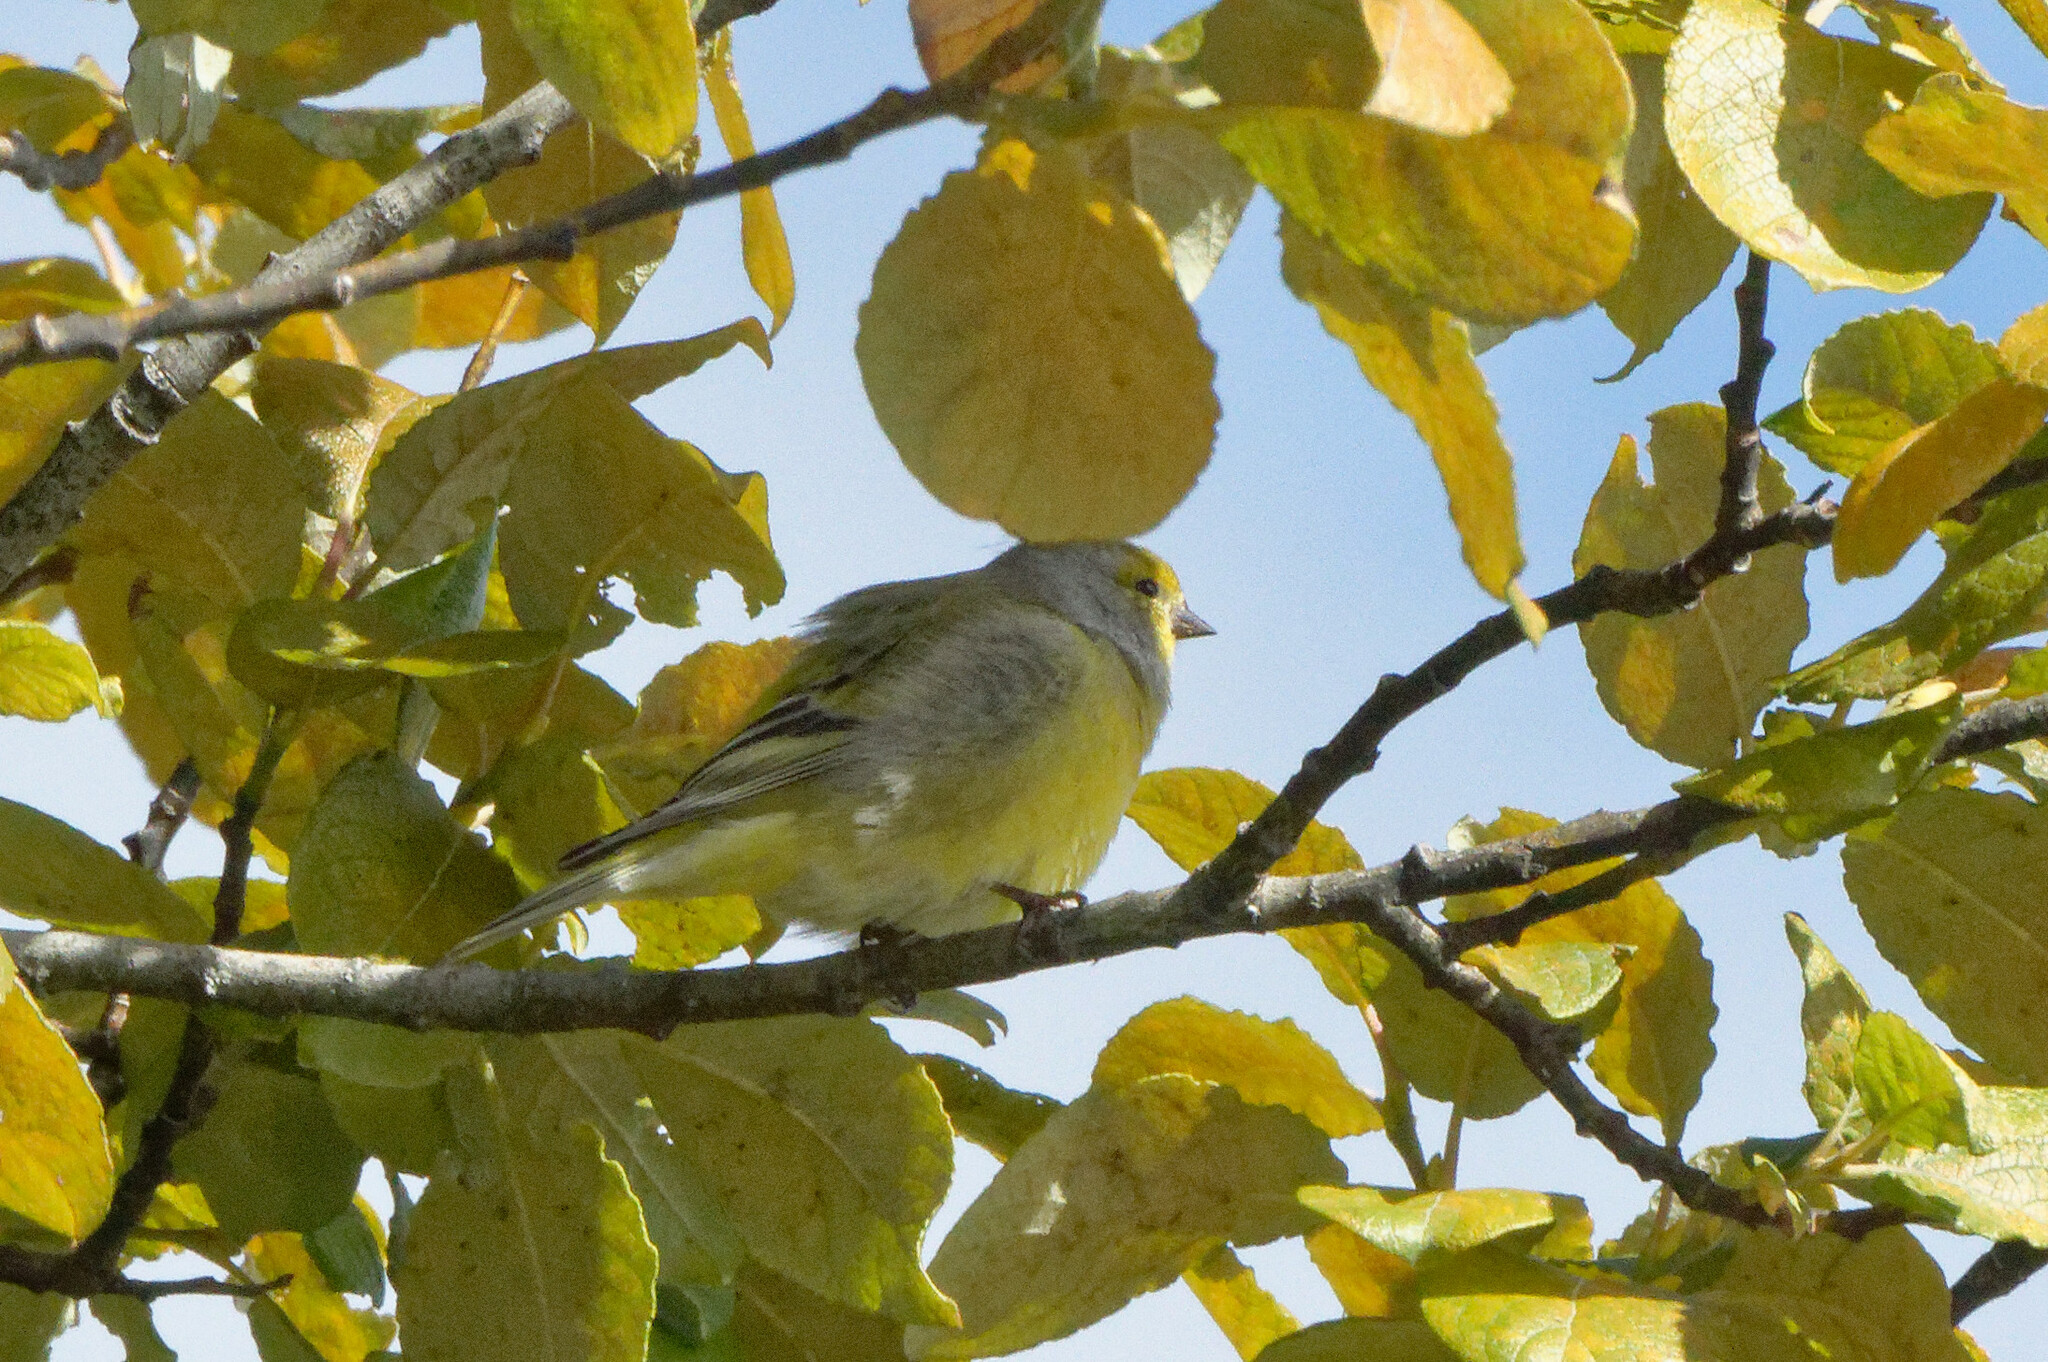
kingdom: Animalia
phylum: Chordata
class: Aves
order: Passeriformes
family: Fringillidae
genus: Carduelis
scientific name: Carduelis citrinella
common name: Citril finch
